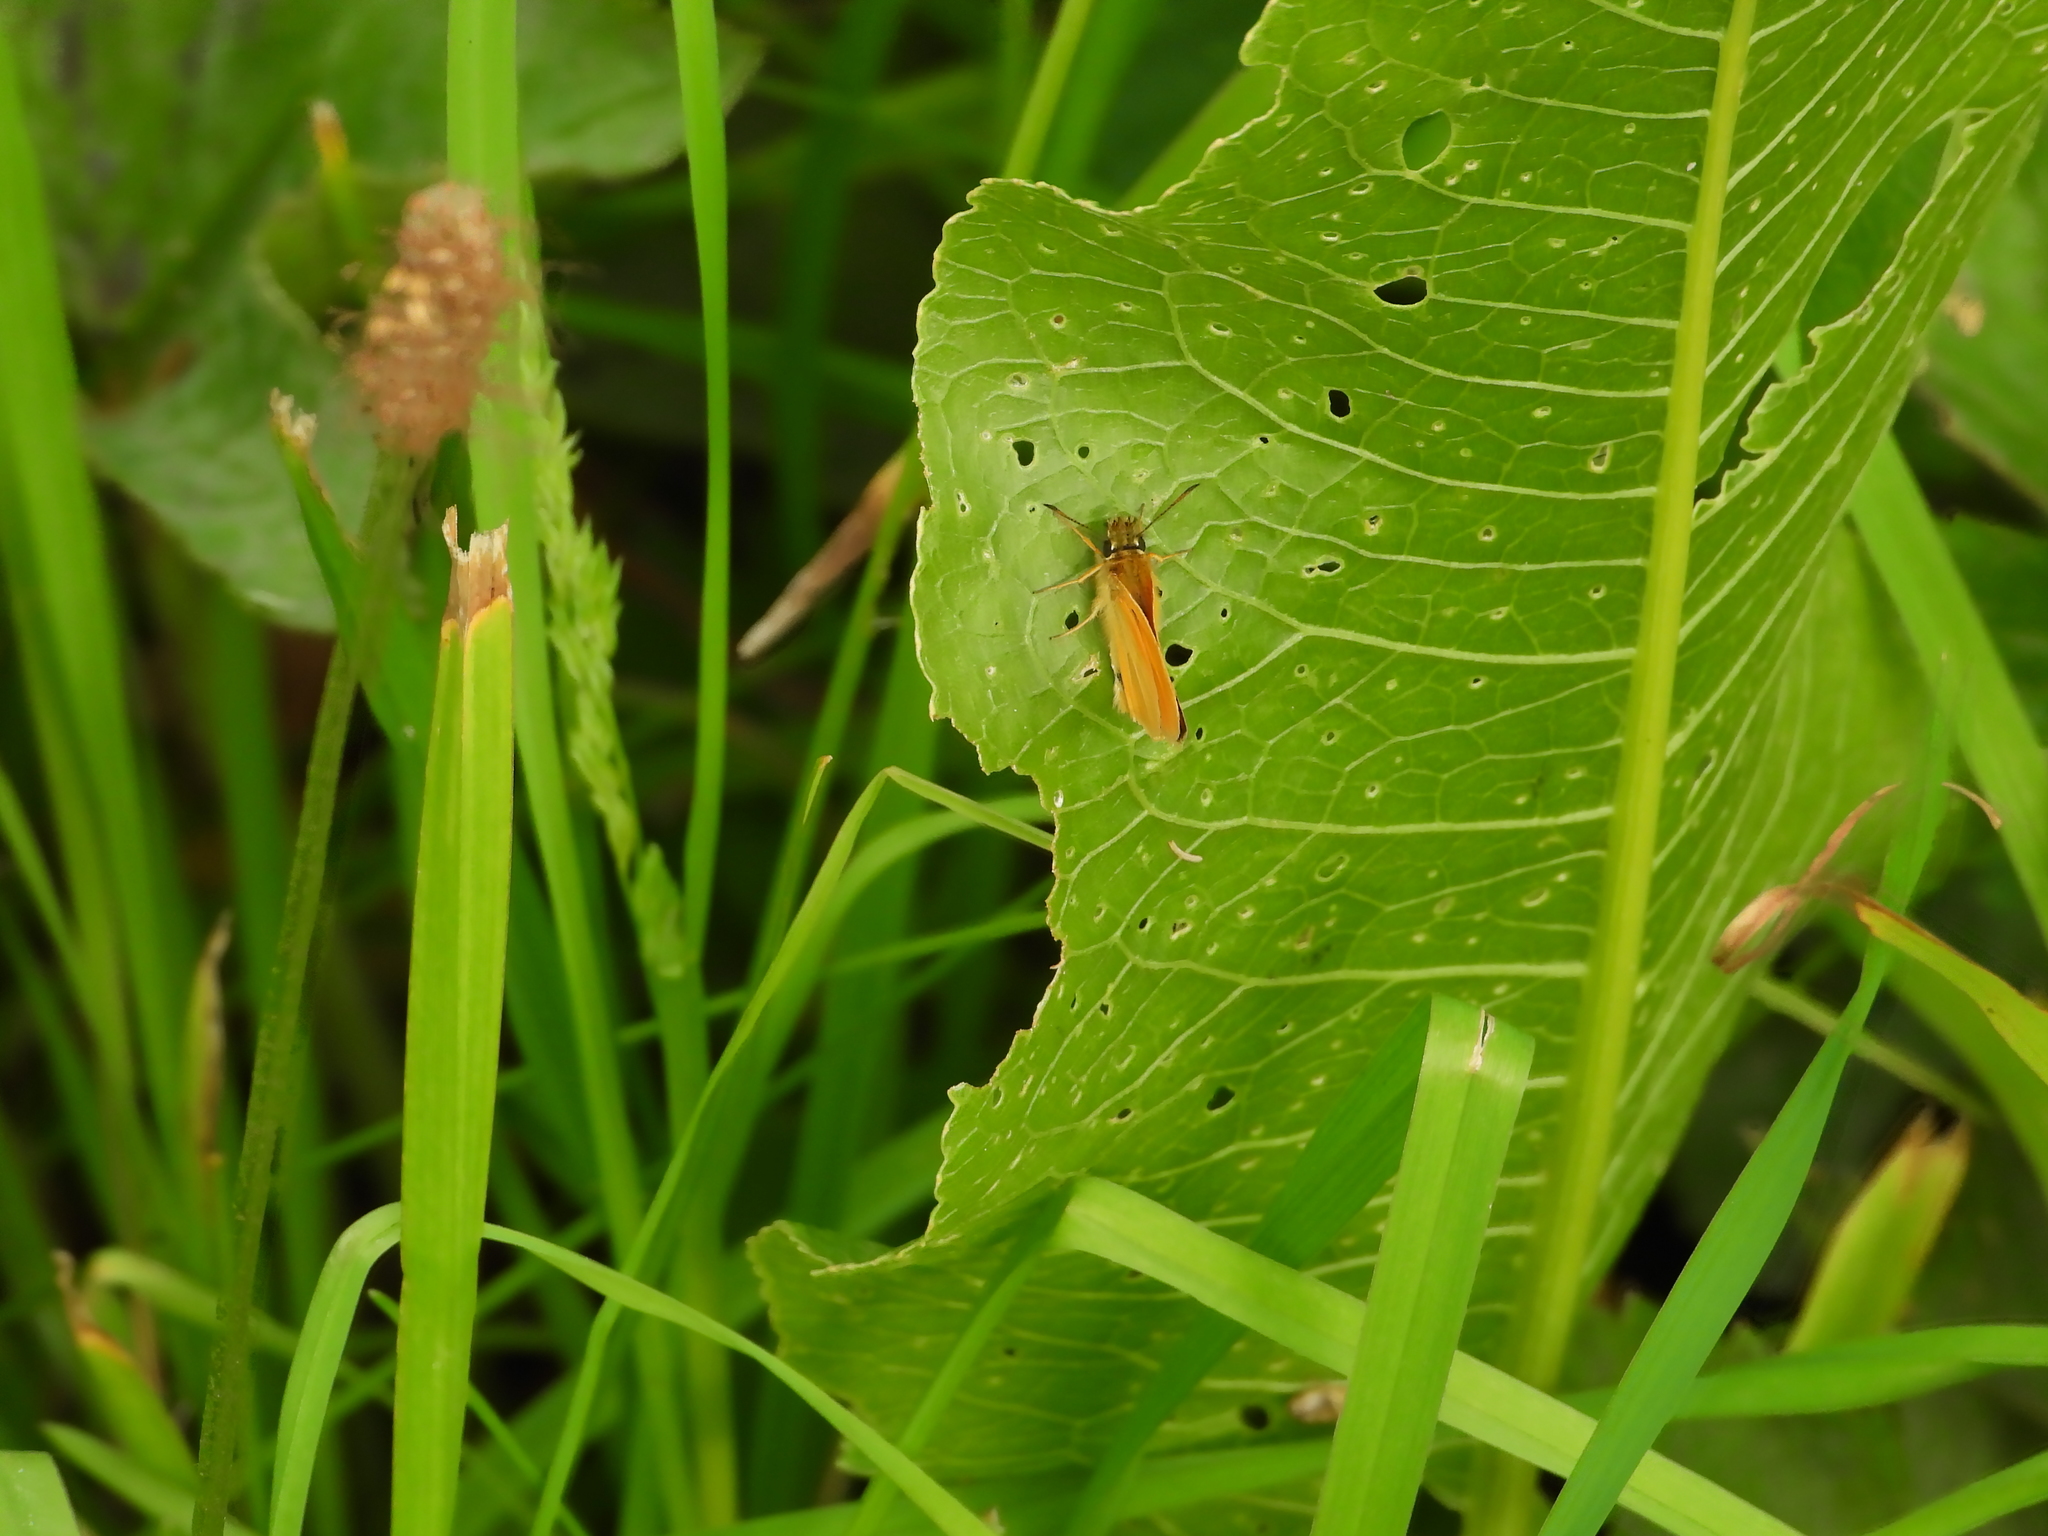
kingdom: Animalia
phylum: Arthropoda
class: Insecta
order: Lepidoptera
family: Hesperiidae
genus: Thymelicus
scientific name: Thymelicus lineola
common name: Essex skipper
